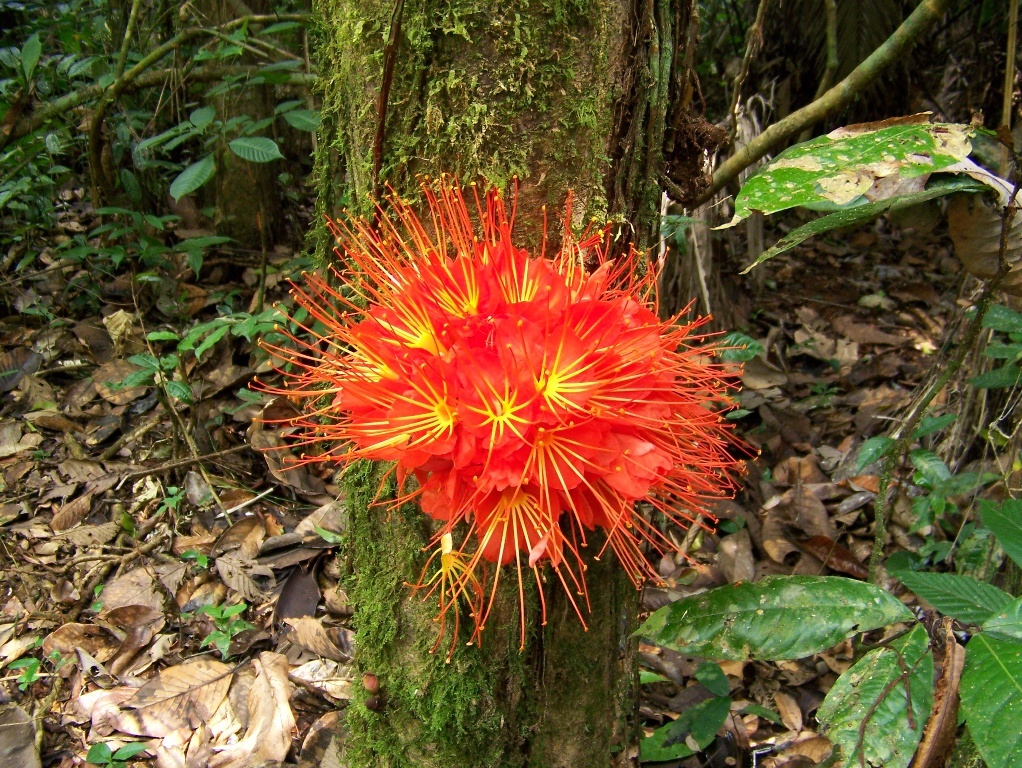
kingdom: Plantae
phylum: Tracheophyta
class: Magnoliopsida
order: Fabales
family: Fabaceae
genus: Brownea
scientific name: Brownea macrophylla
